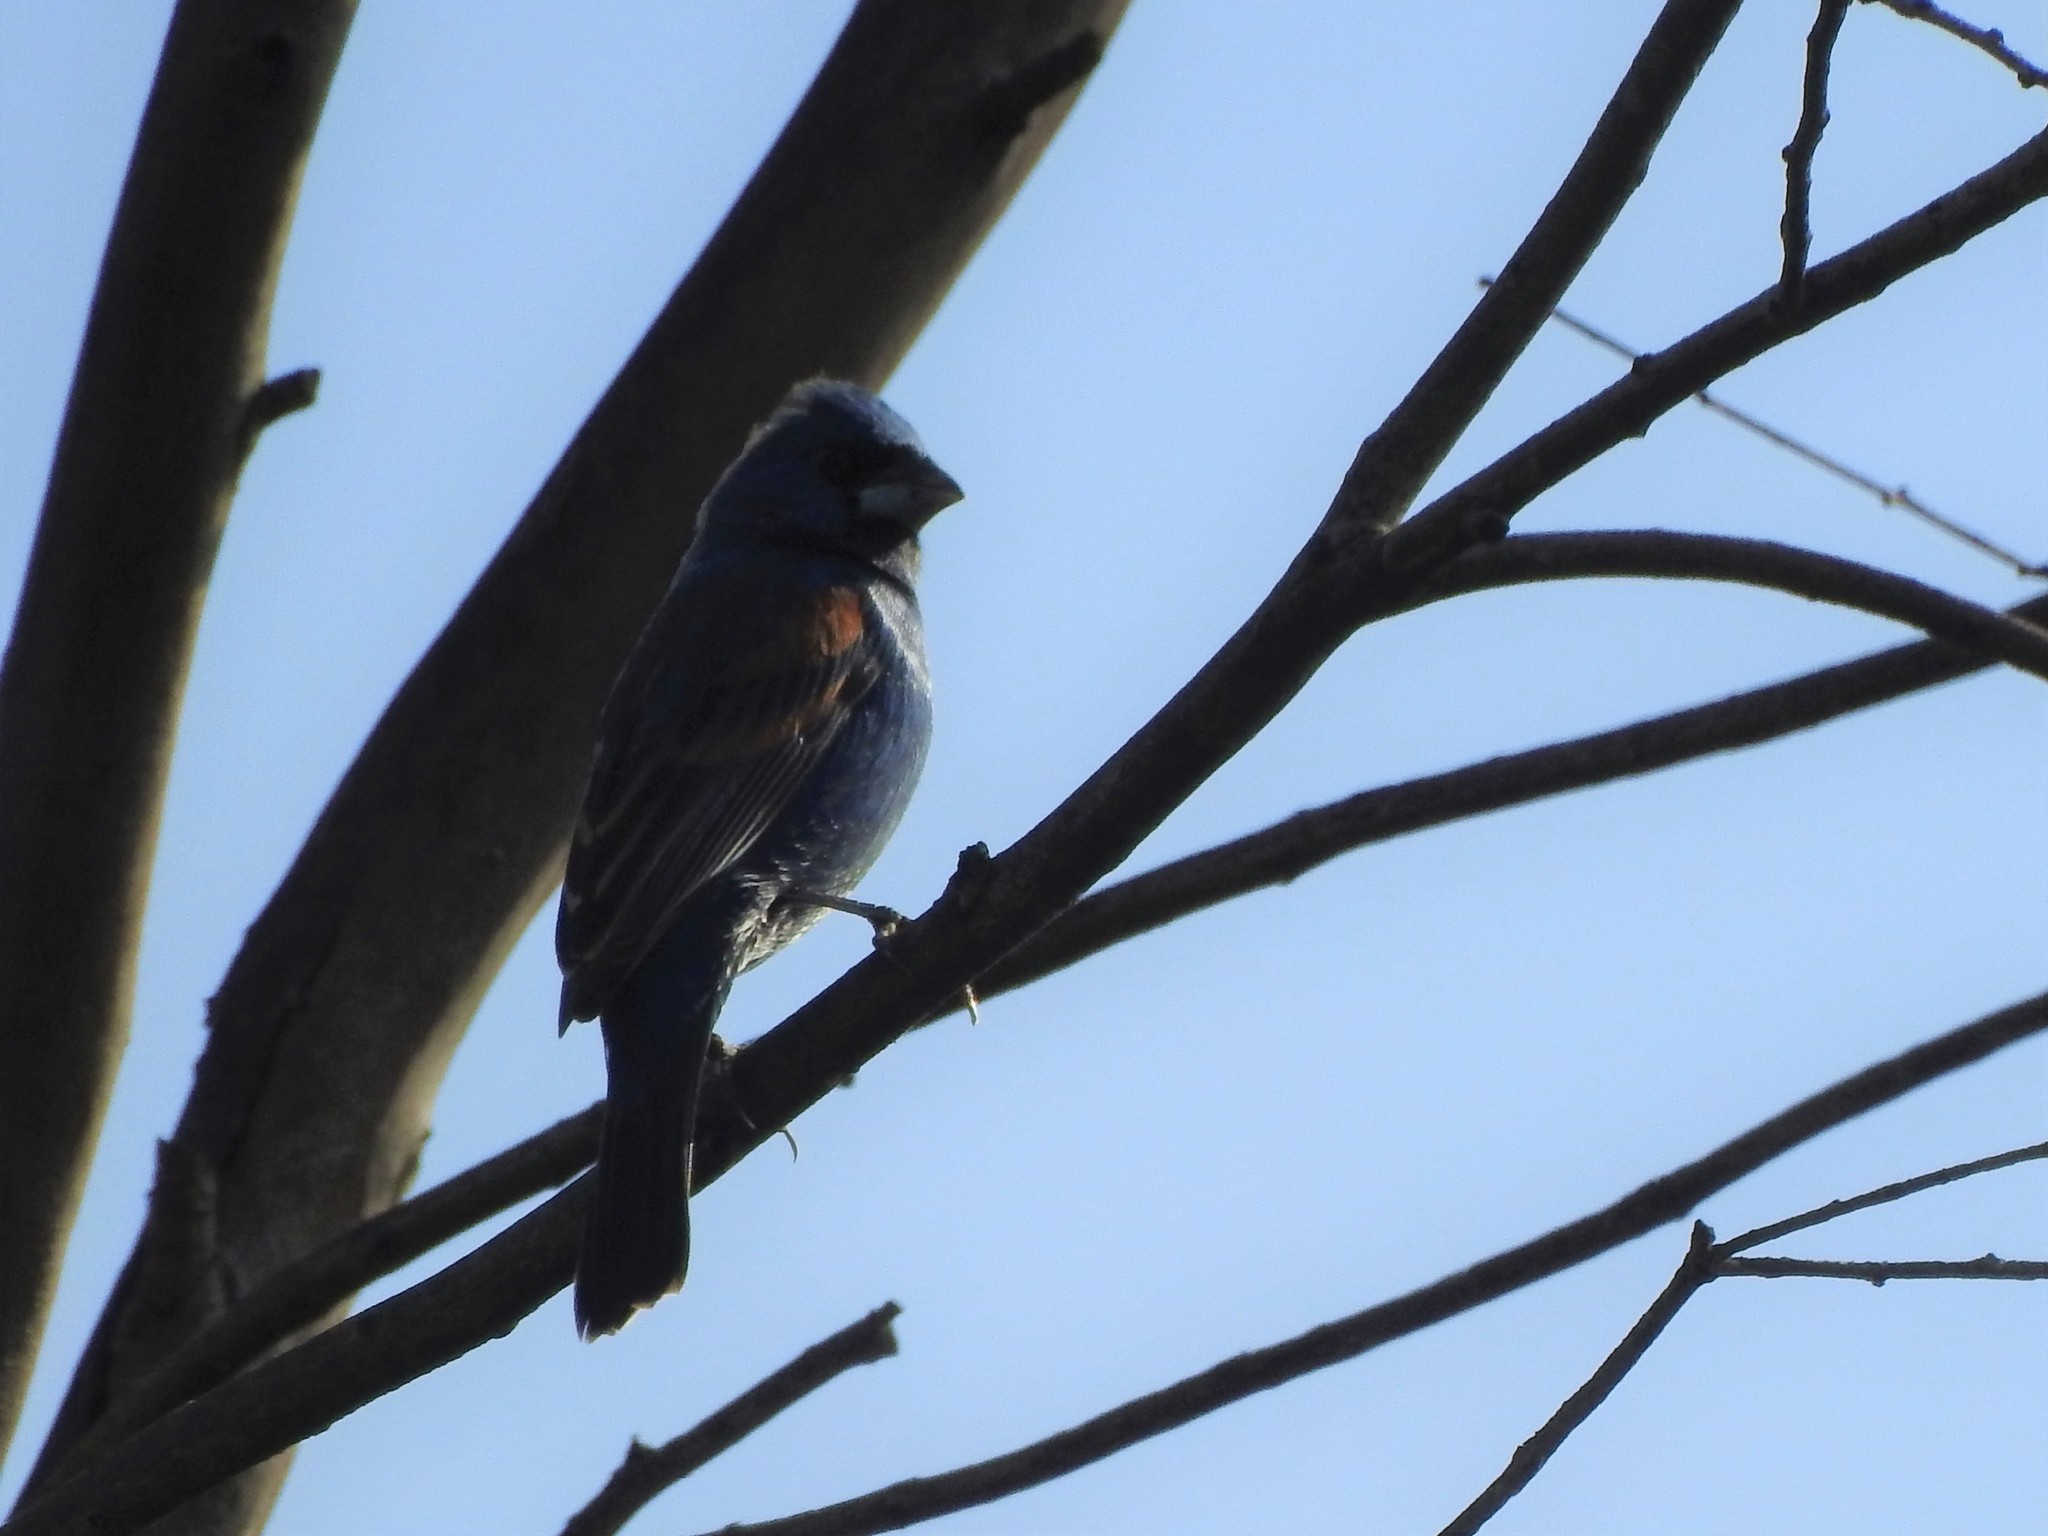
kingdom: Animalia
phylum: Chordata
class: Aves
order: Passeriformes
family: Cardinalidae
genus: Passerina
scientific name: Passerina caerulea
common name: Blue grosbeak
